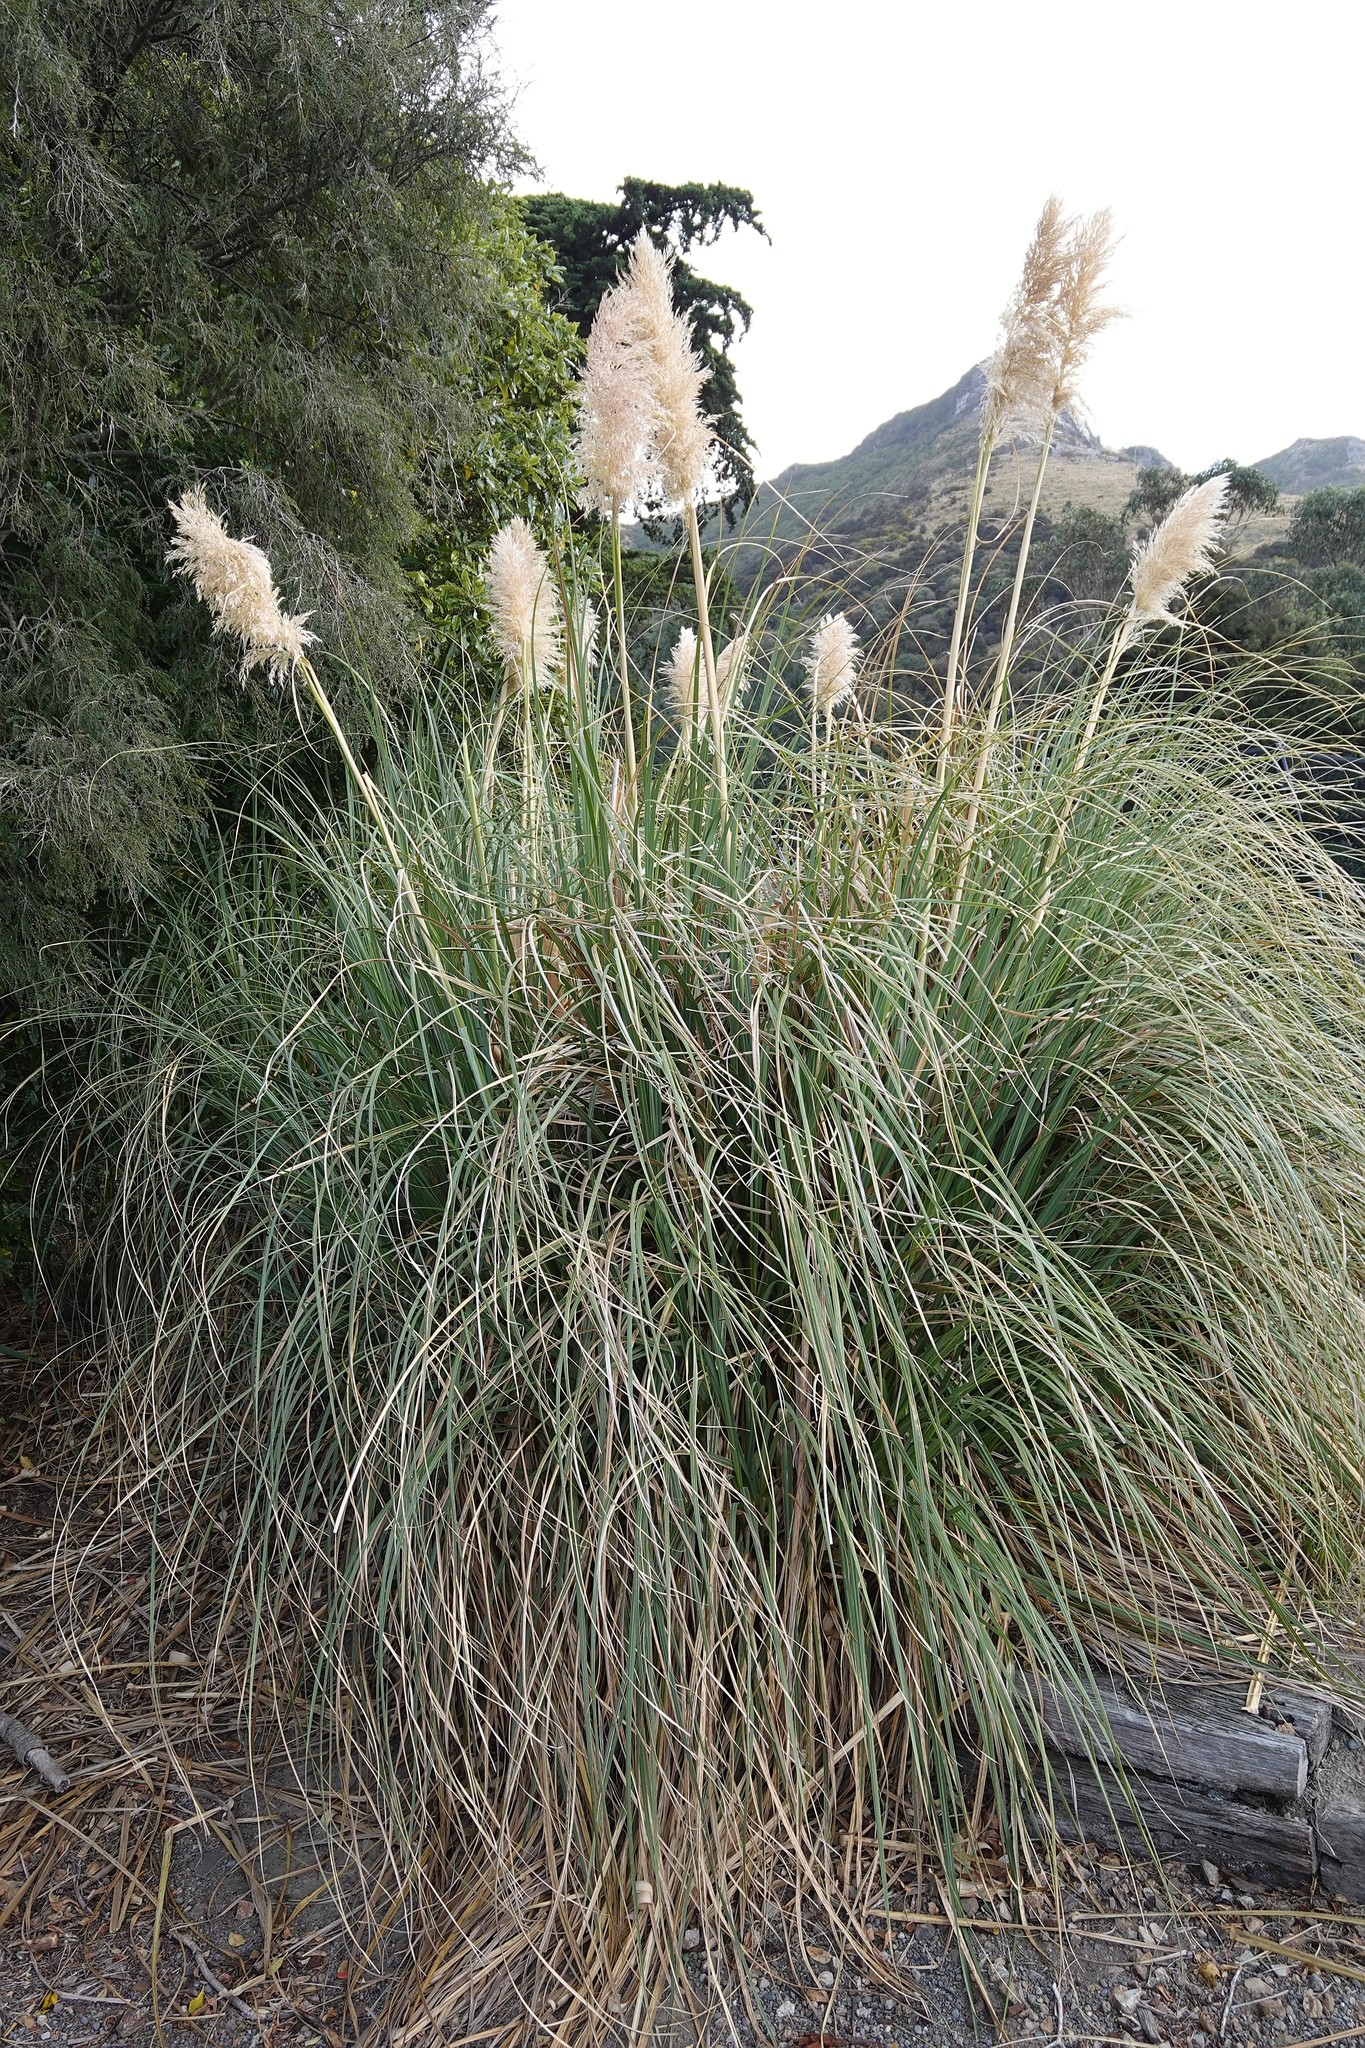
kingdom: Plantae
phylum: Tracheophyta
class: Liliopsida
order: Poales
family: Poaceae
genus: Cortaderia
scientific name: Cortaderia selloana
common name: Uruguayan pampas grass
